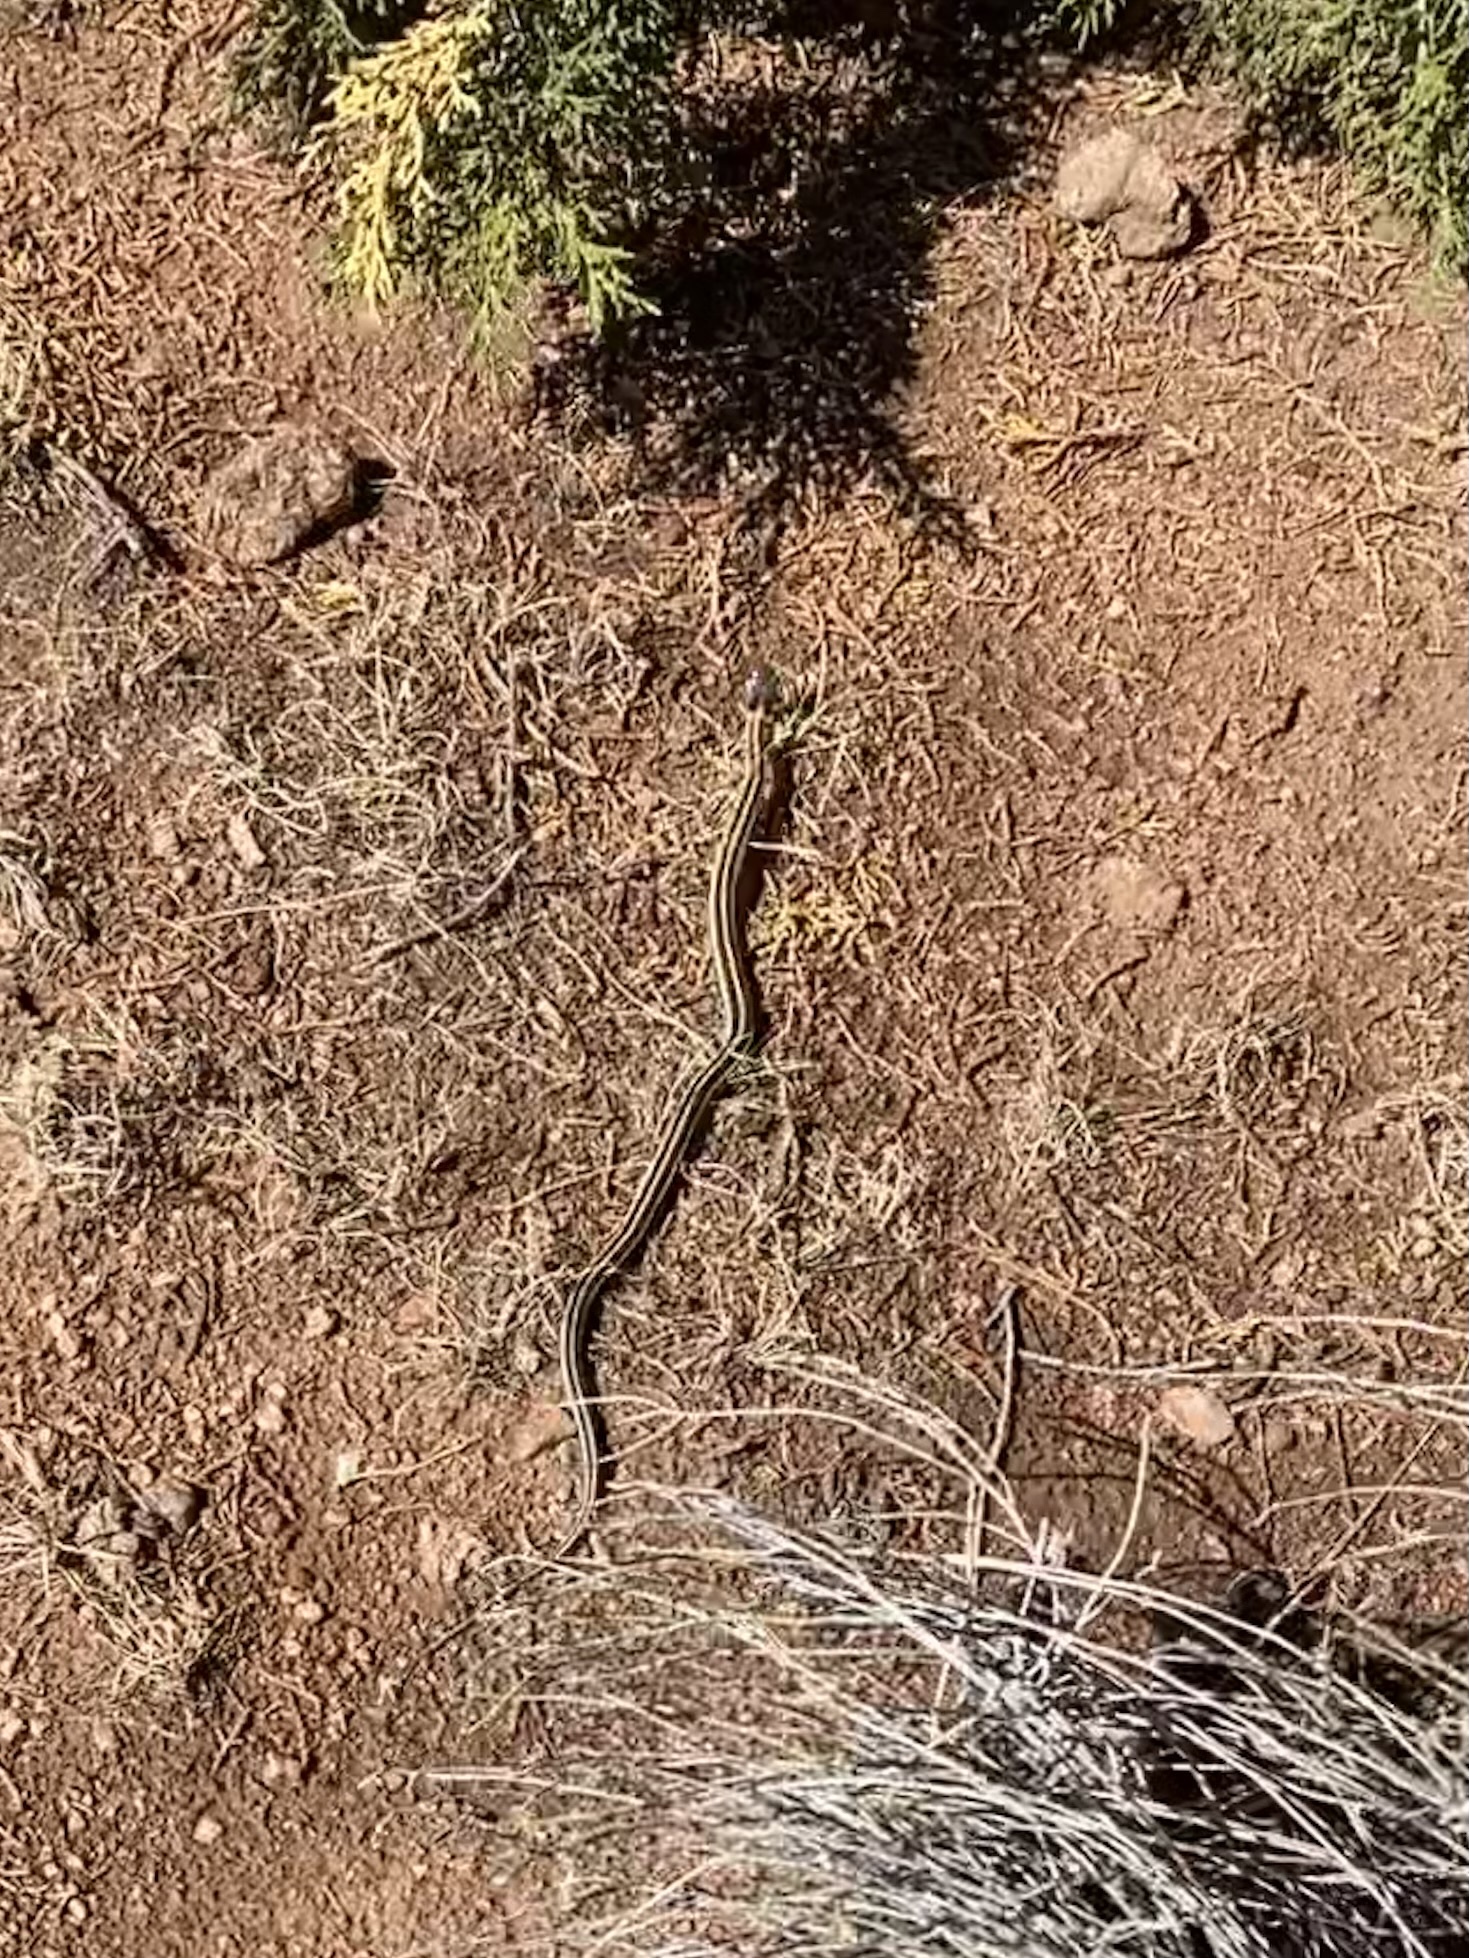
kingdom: Animalia
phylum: Chordata
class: Squamata
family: Colubridae
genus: Thamnophis
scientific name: Thamnophis cyrtopsis
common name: Black-necked gartersnake
